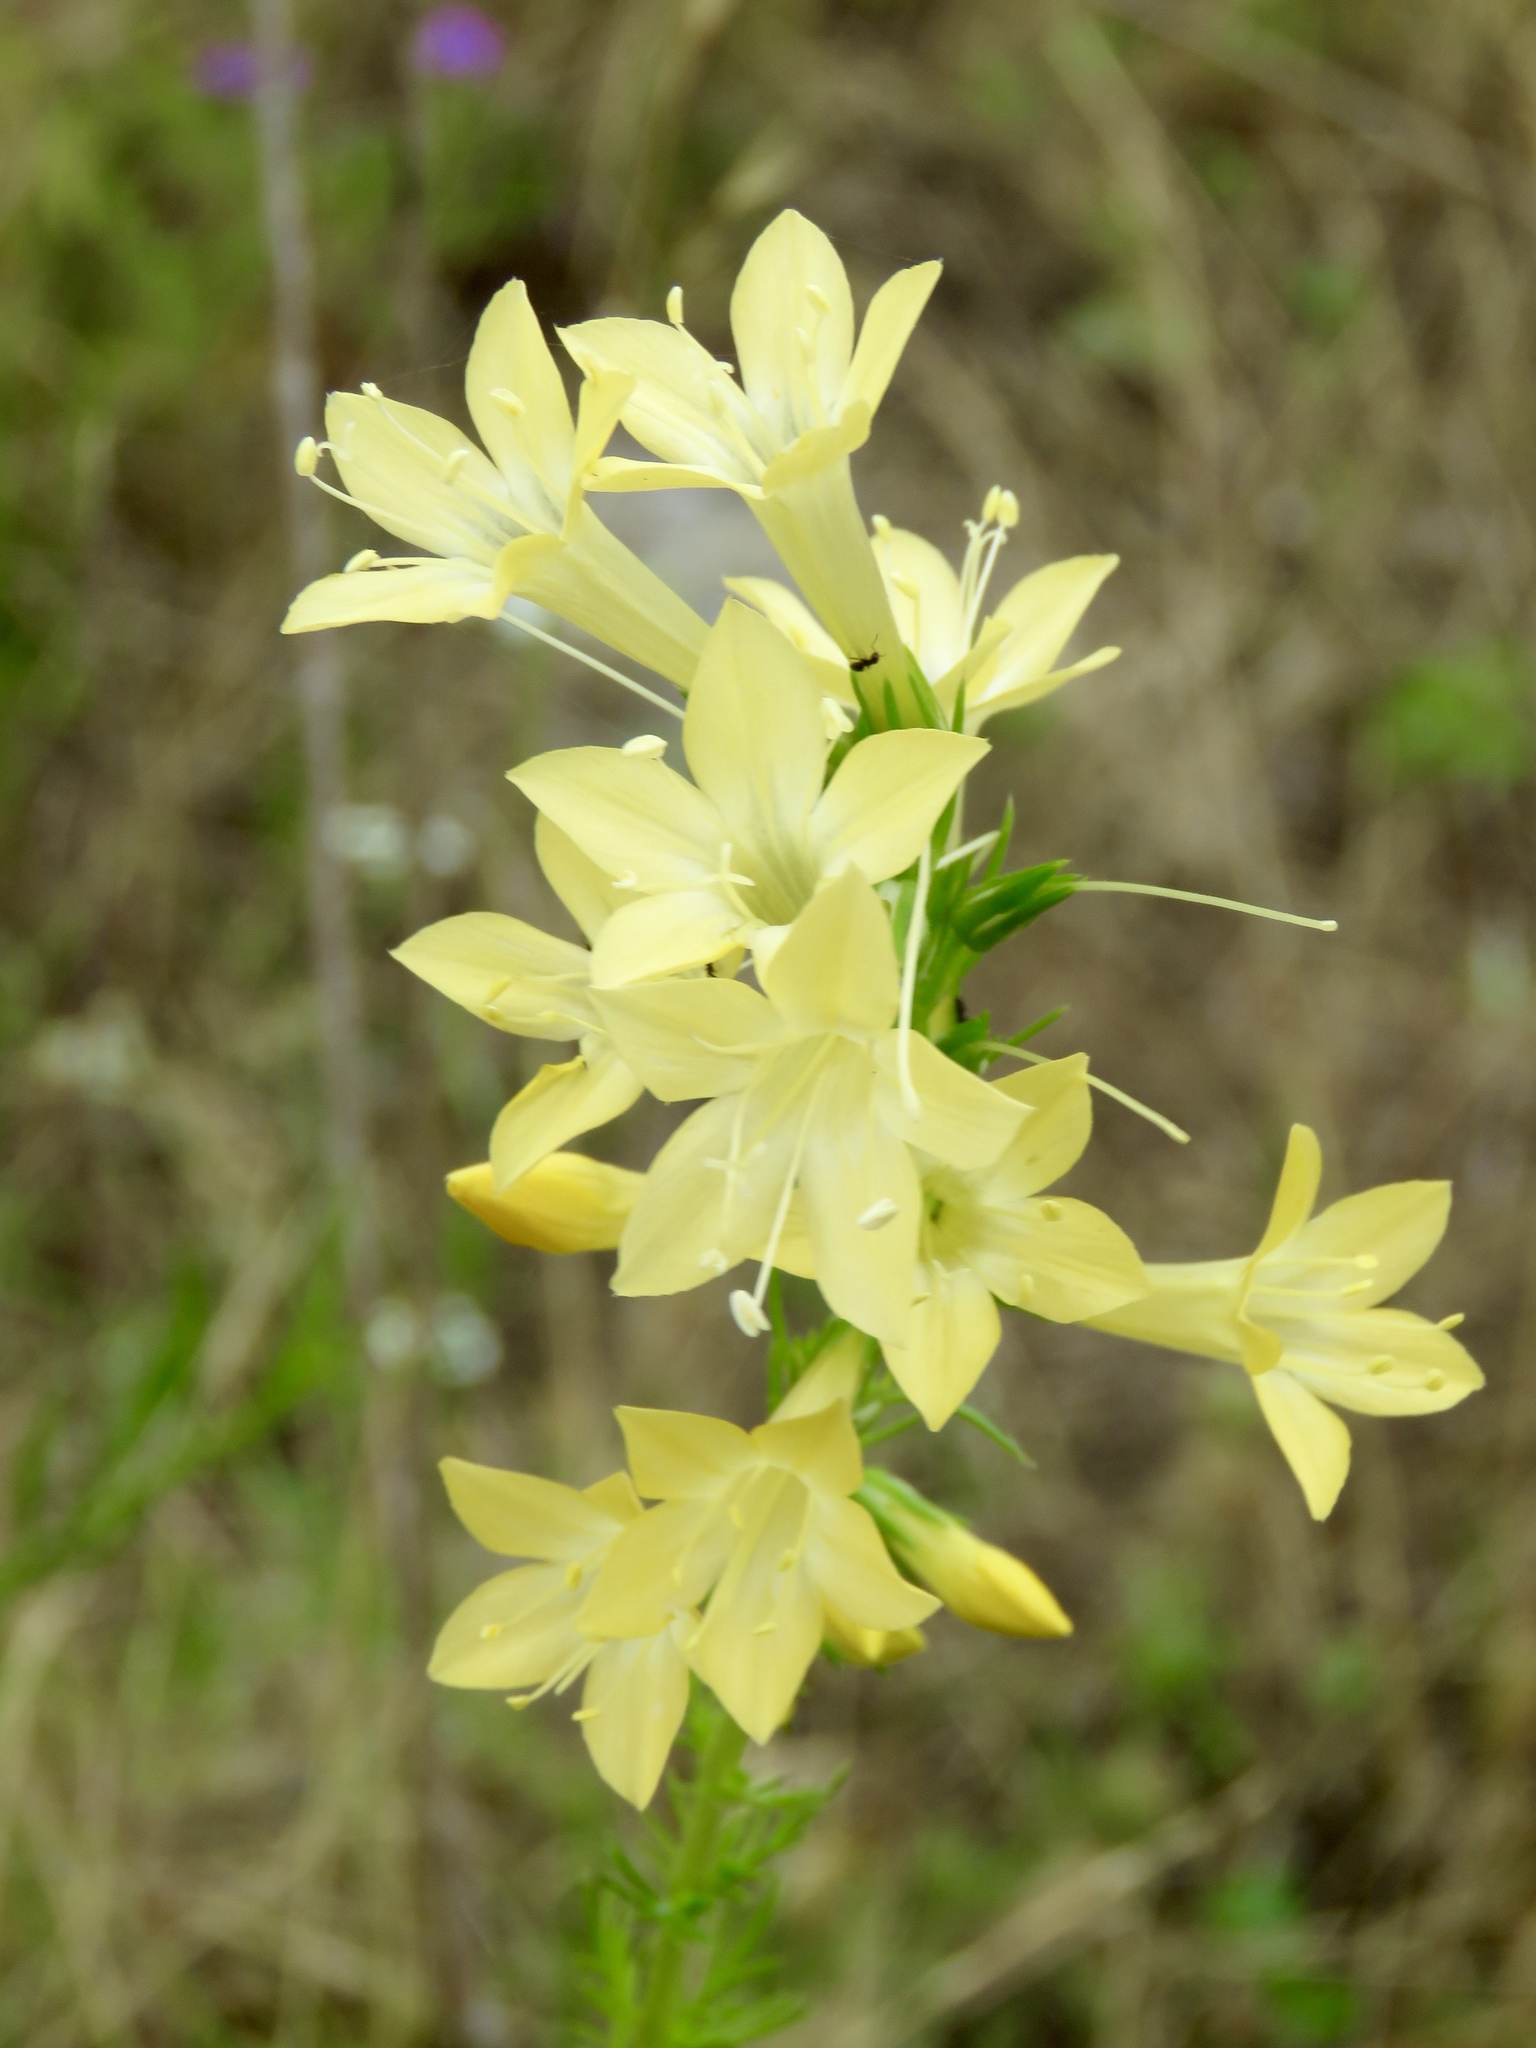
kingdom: Plantae
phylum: Tracheophyta
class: Magnoliopsida
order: Ericales
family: Polemoniaceae
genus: Ipomopsis
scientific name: Ipomopsis rubra
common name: Skyrocket
